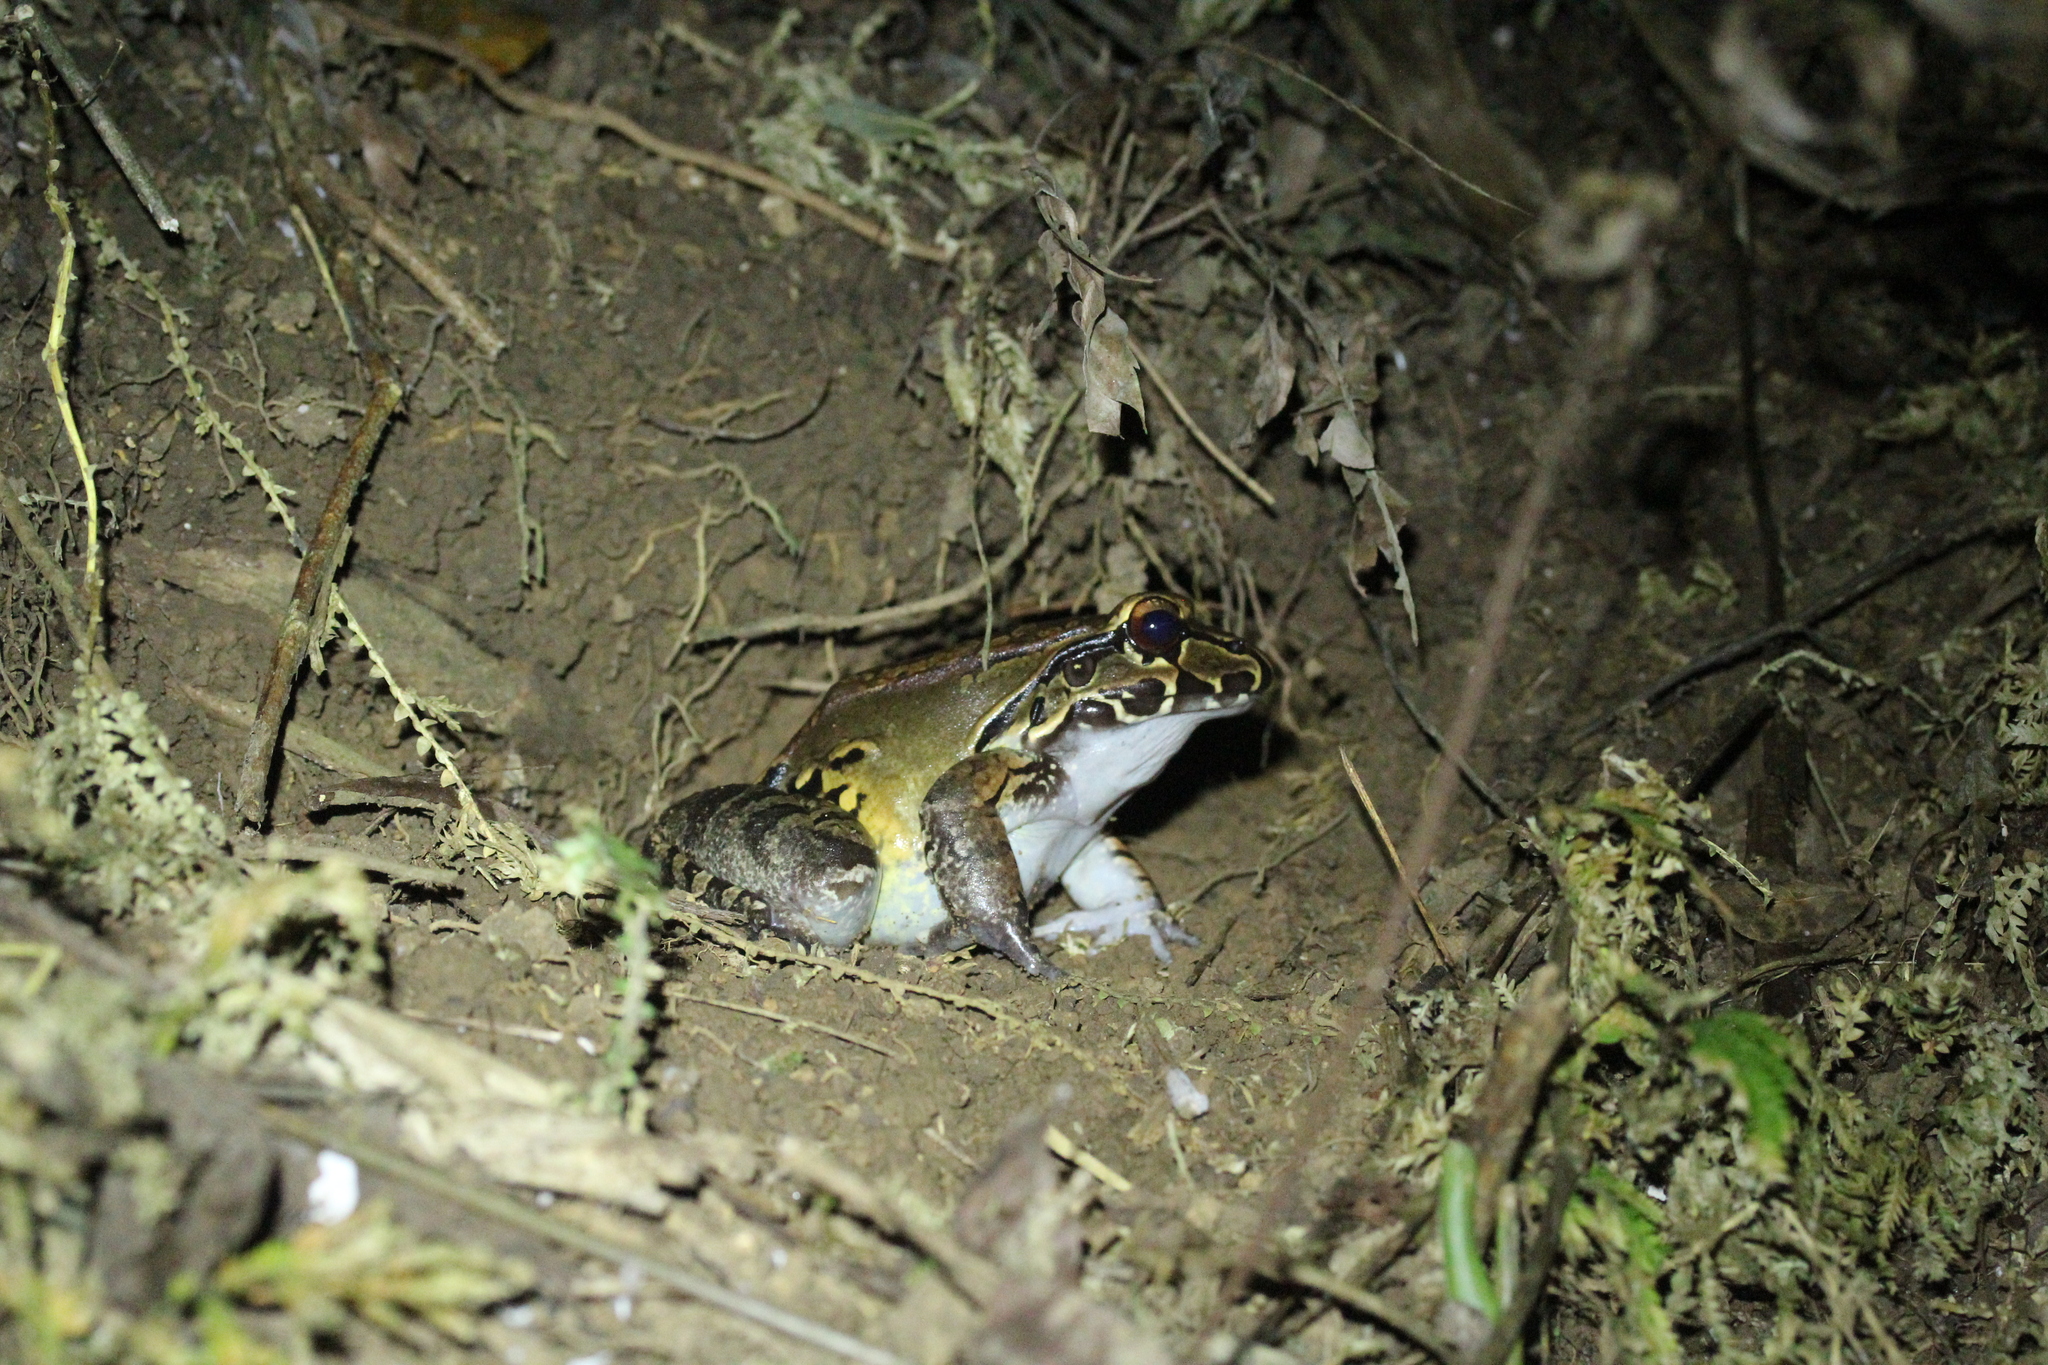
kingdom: Animalia
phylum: Chordata
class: Amphibia
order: Anura
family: Leptodactylidae
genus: Leptodactylus
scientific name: Leptodactylus savagei
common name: Savage's thin-toed frog
